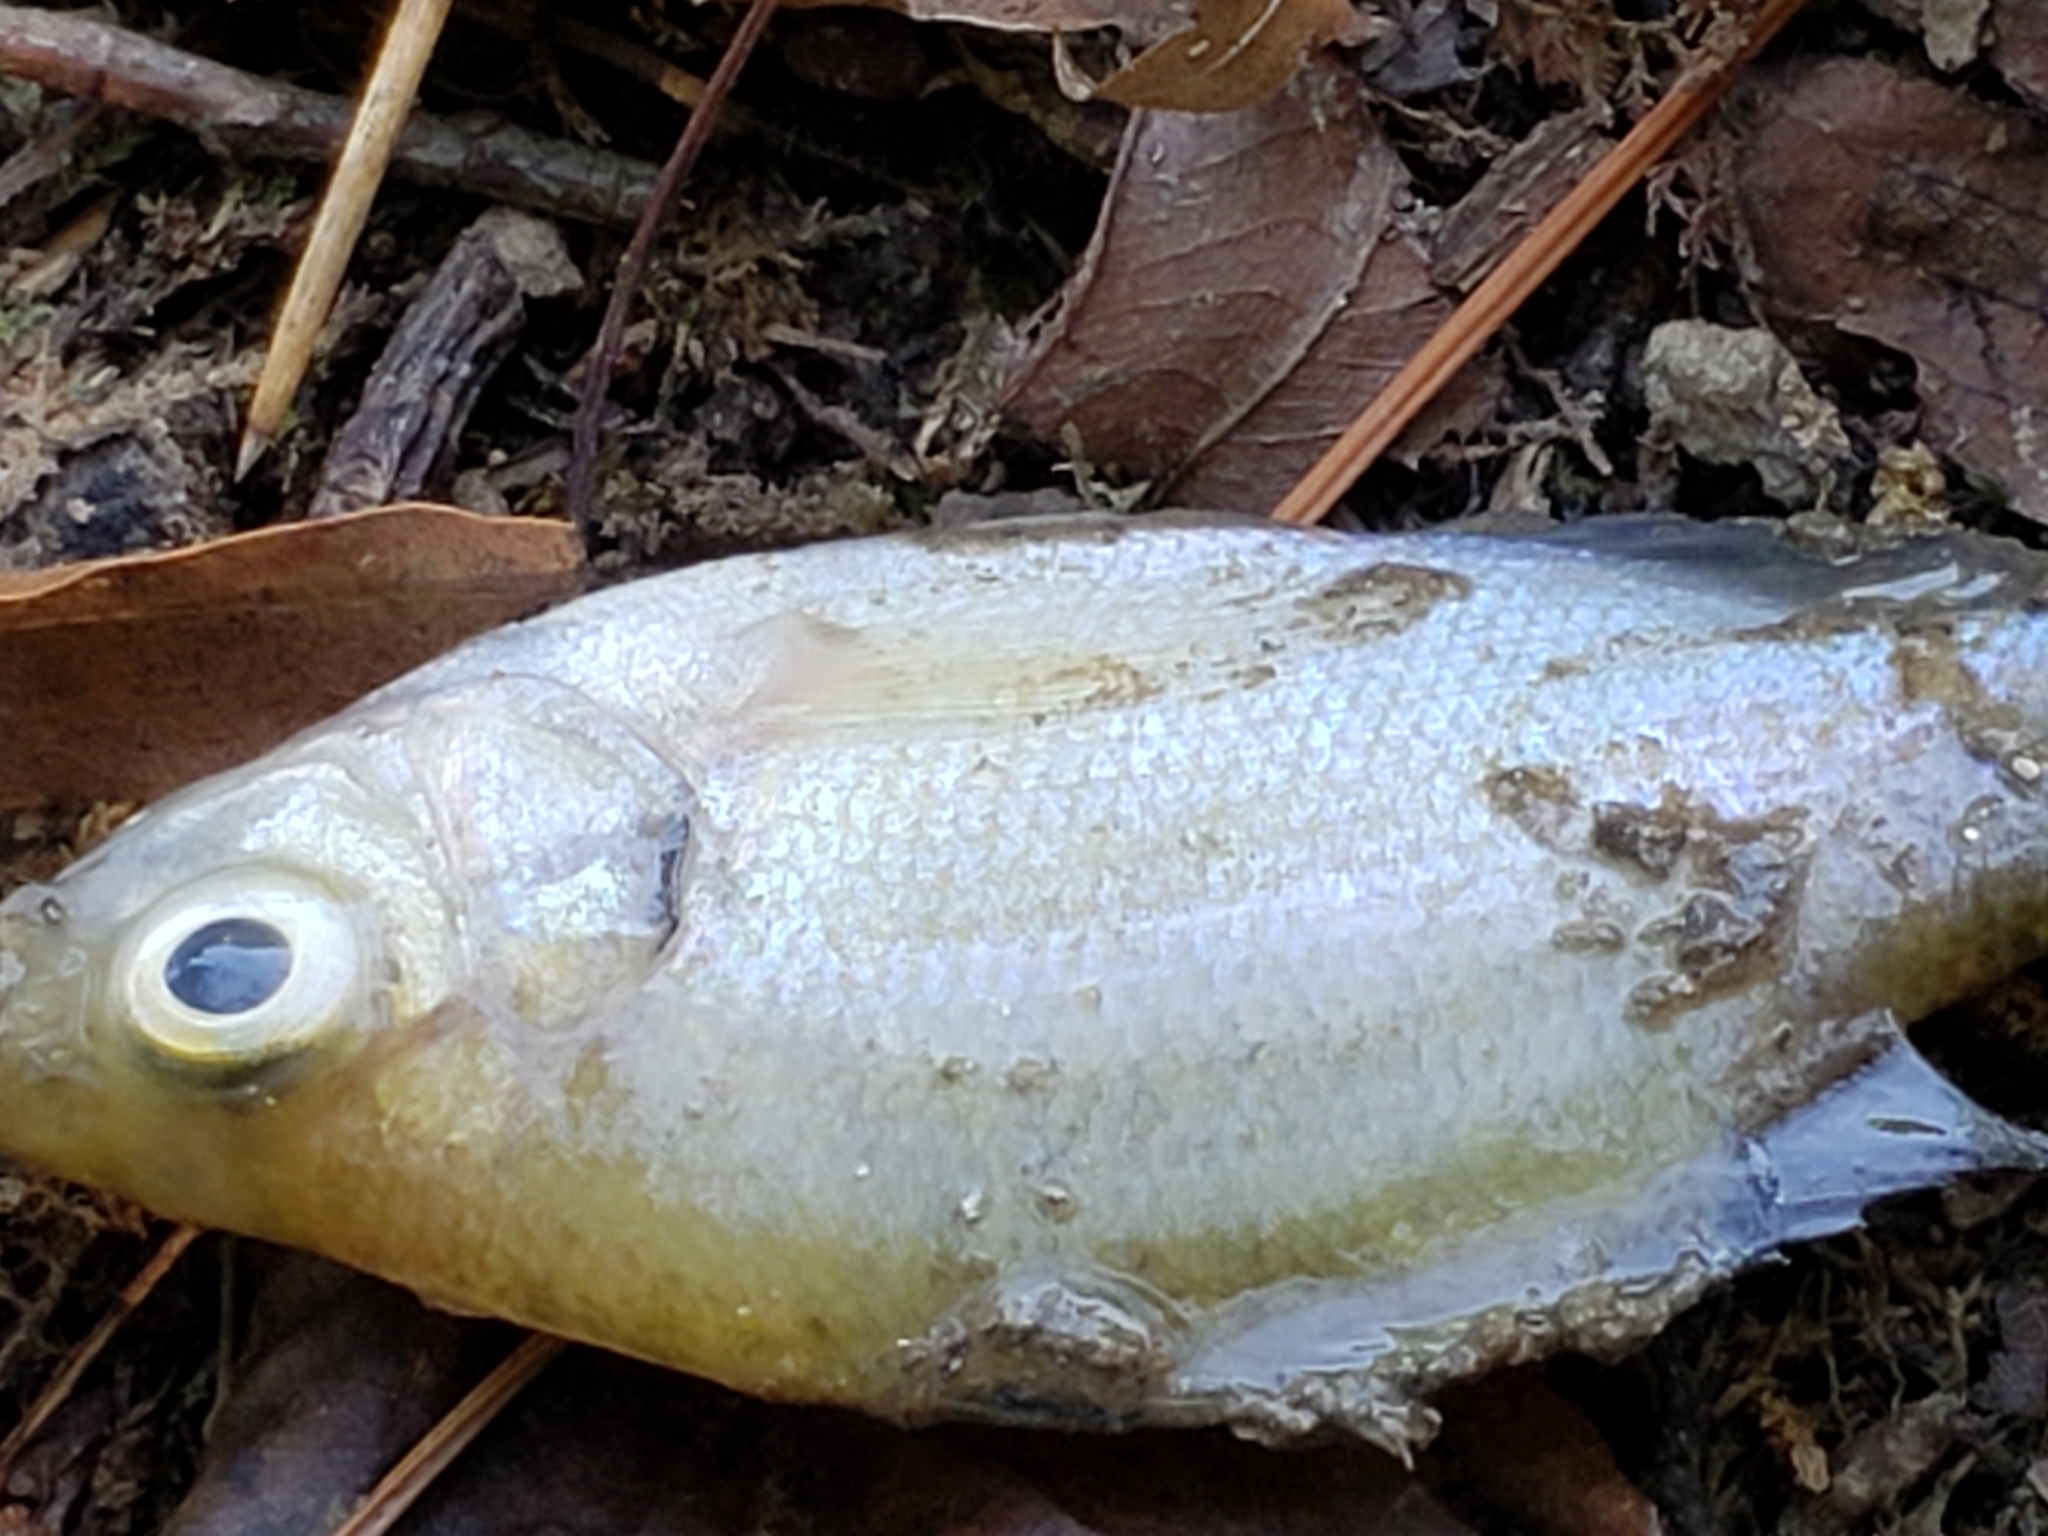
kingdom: Animalia
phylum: Chordata
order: Perciformes
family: Centrarchidae
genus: Lepomis
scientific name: Lepomis macrochirus
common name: Bluegill
